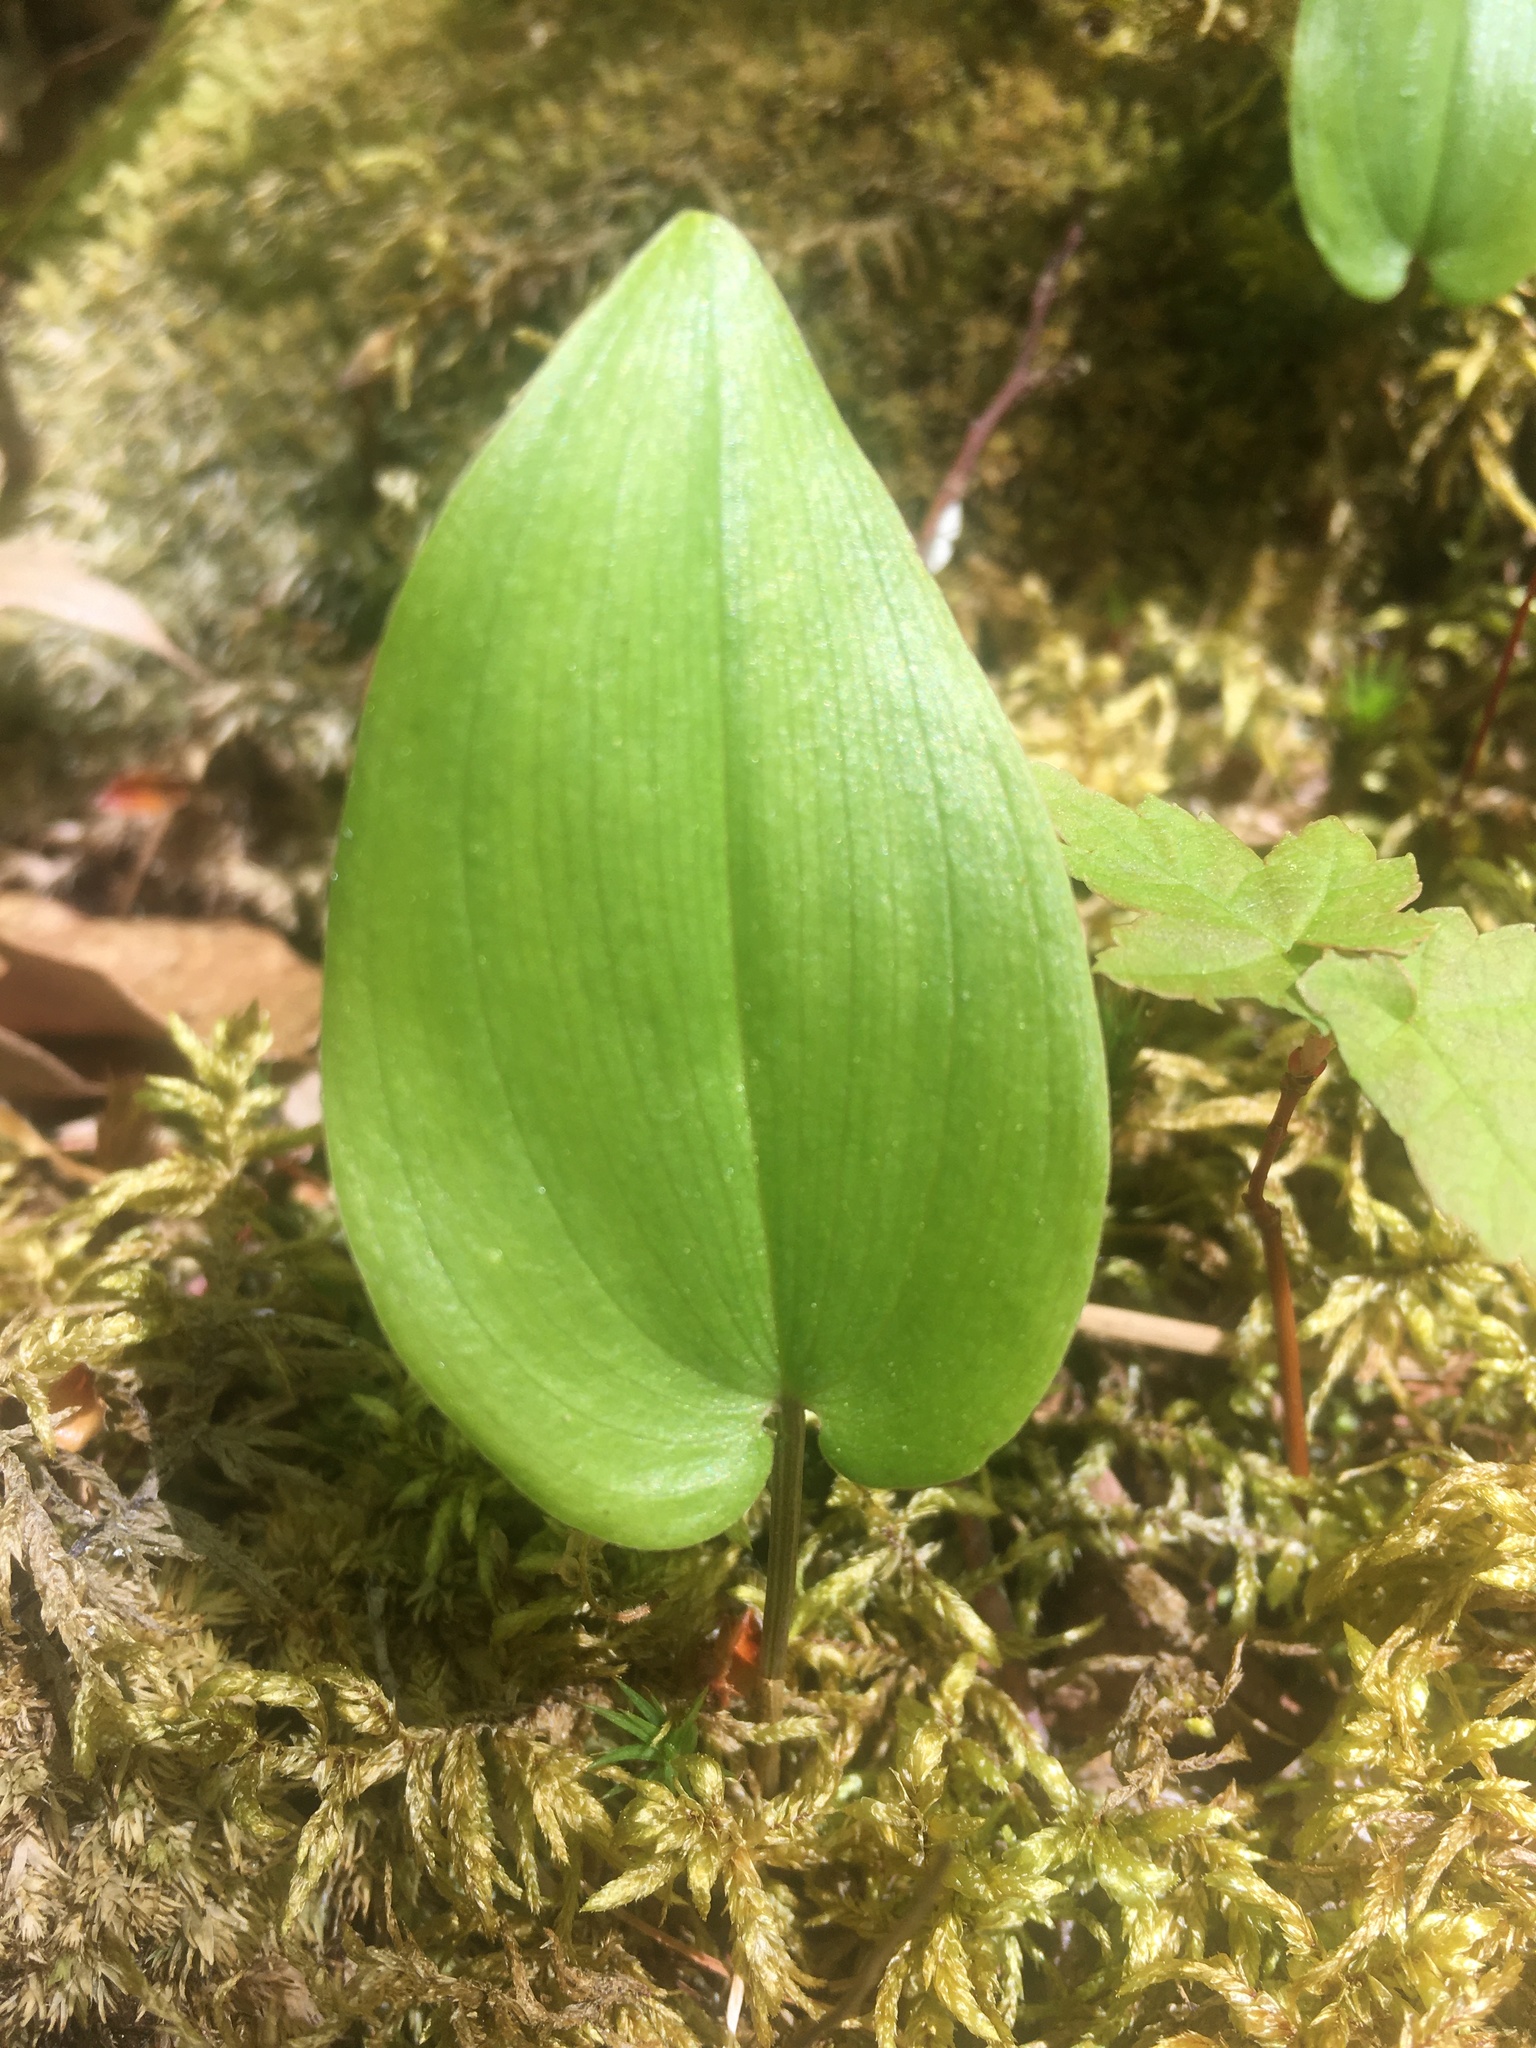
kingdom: Plantae
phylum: Tracheophyta
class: Liliopsida
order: Asparagales
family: Asparagaceae
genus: Maianthemum
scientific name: Maianthemum canadense
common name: False lily-of-the-valley
